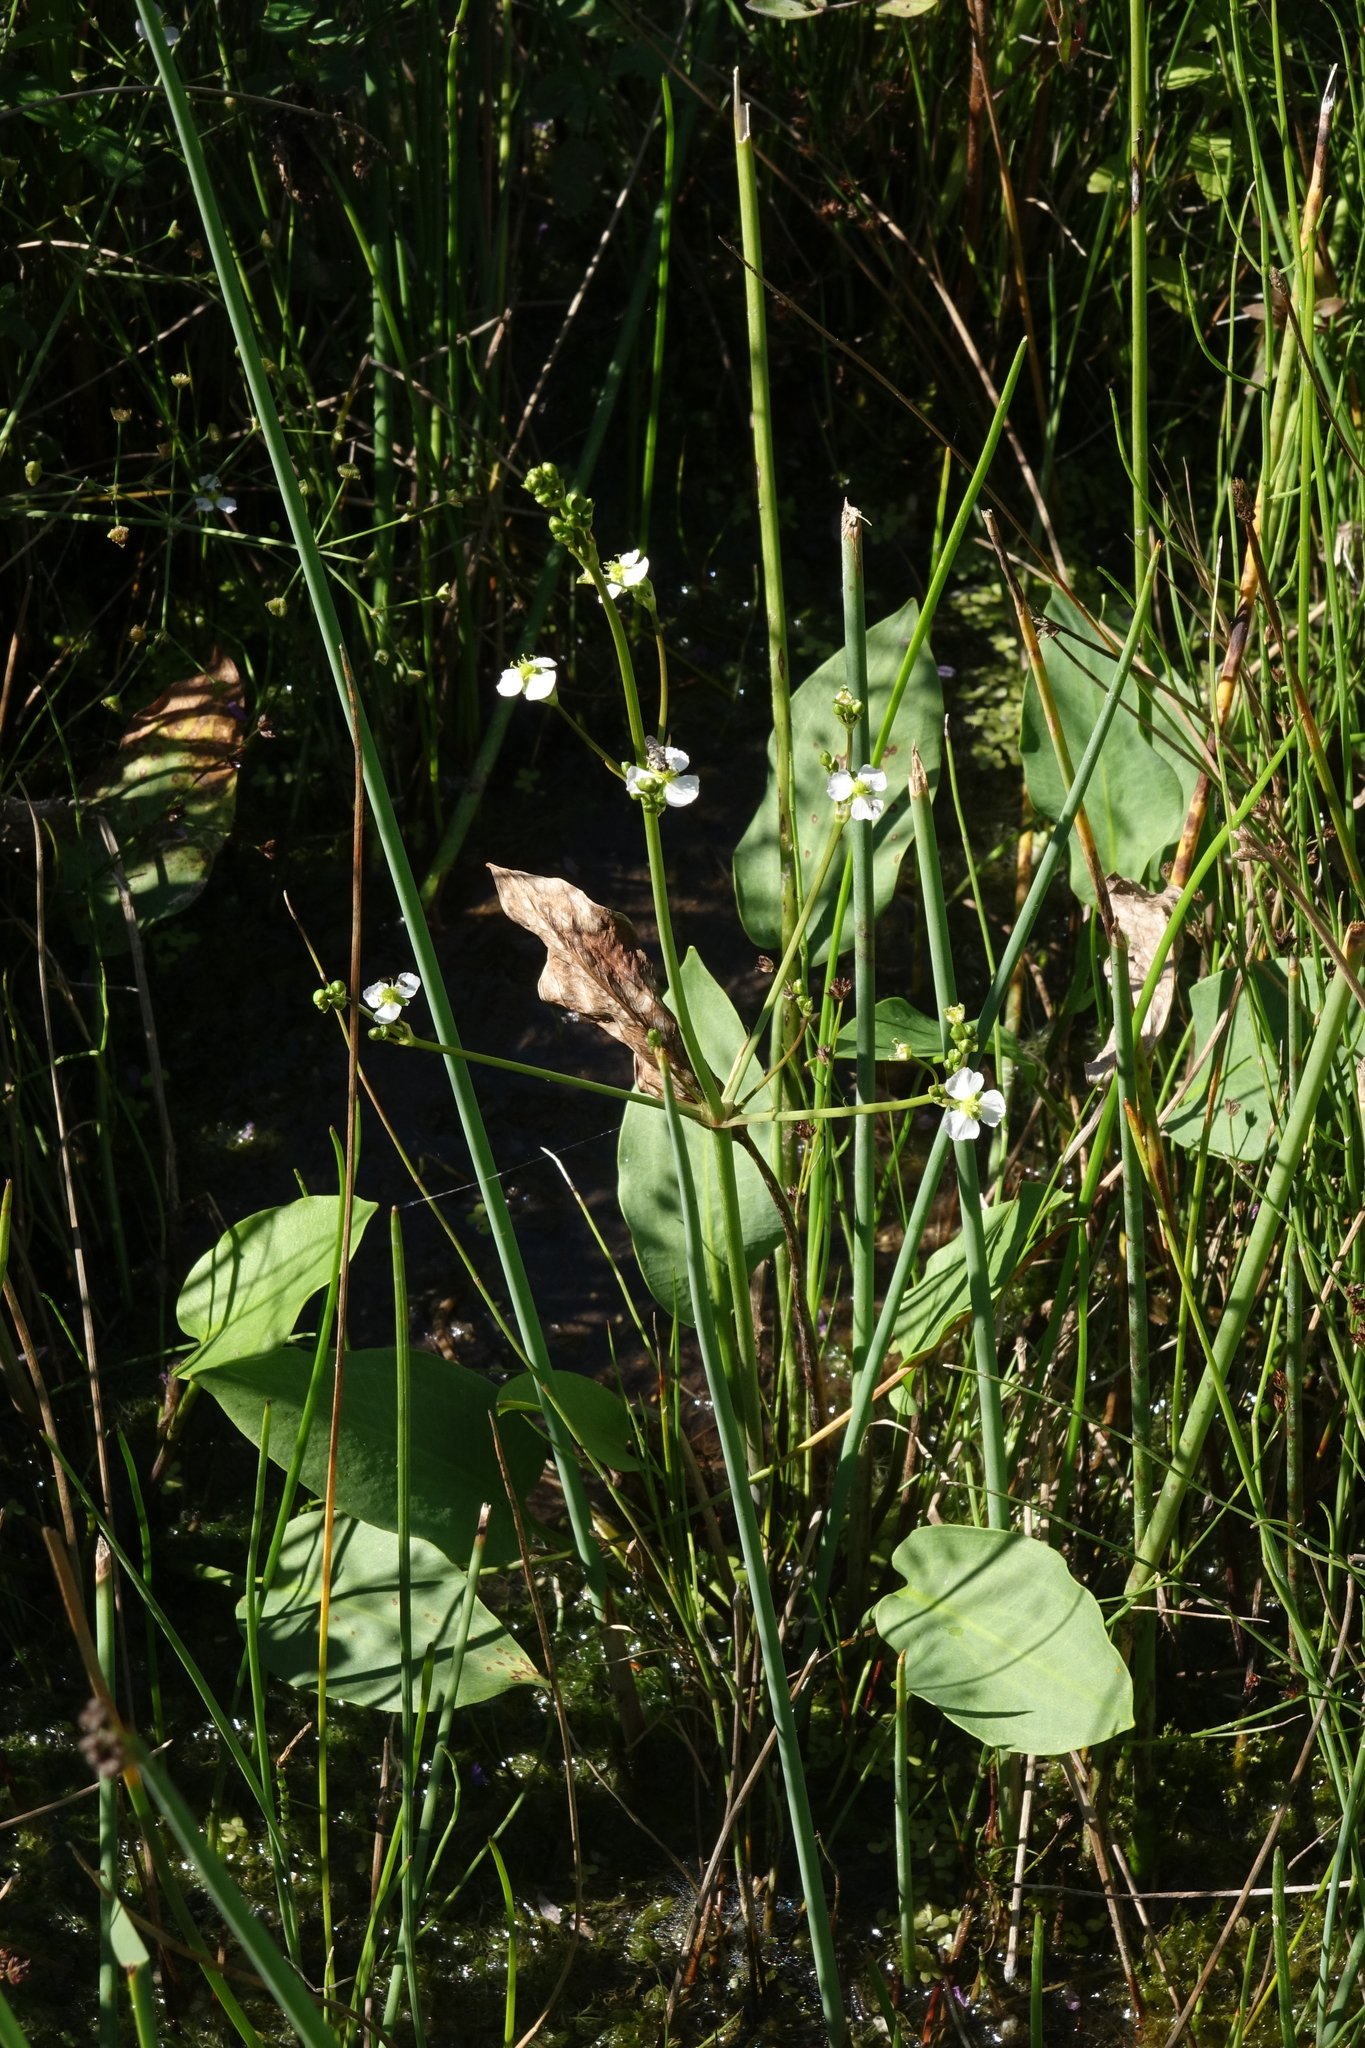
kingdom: Plantae
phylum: Tracheophyta
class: Liliopsida
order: Alismatales
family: Alismataceae
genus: Alisma
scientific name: Alisma plantago-aquatica
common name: Water-plantain
